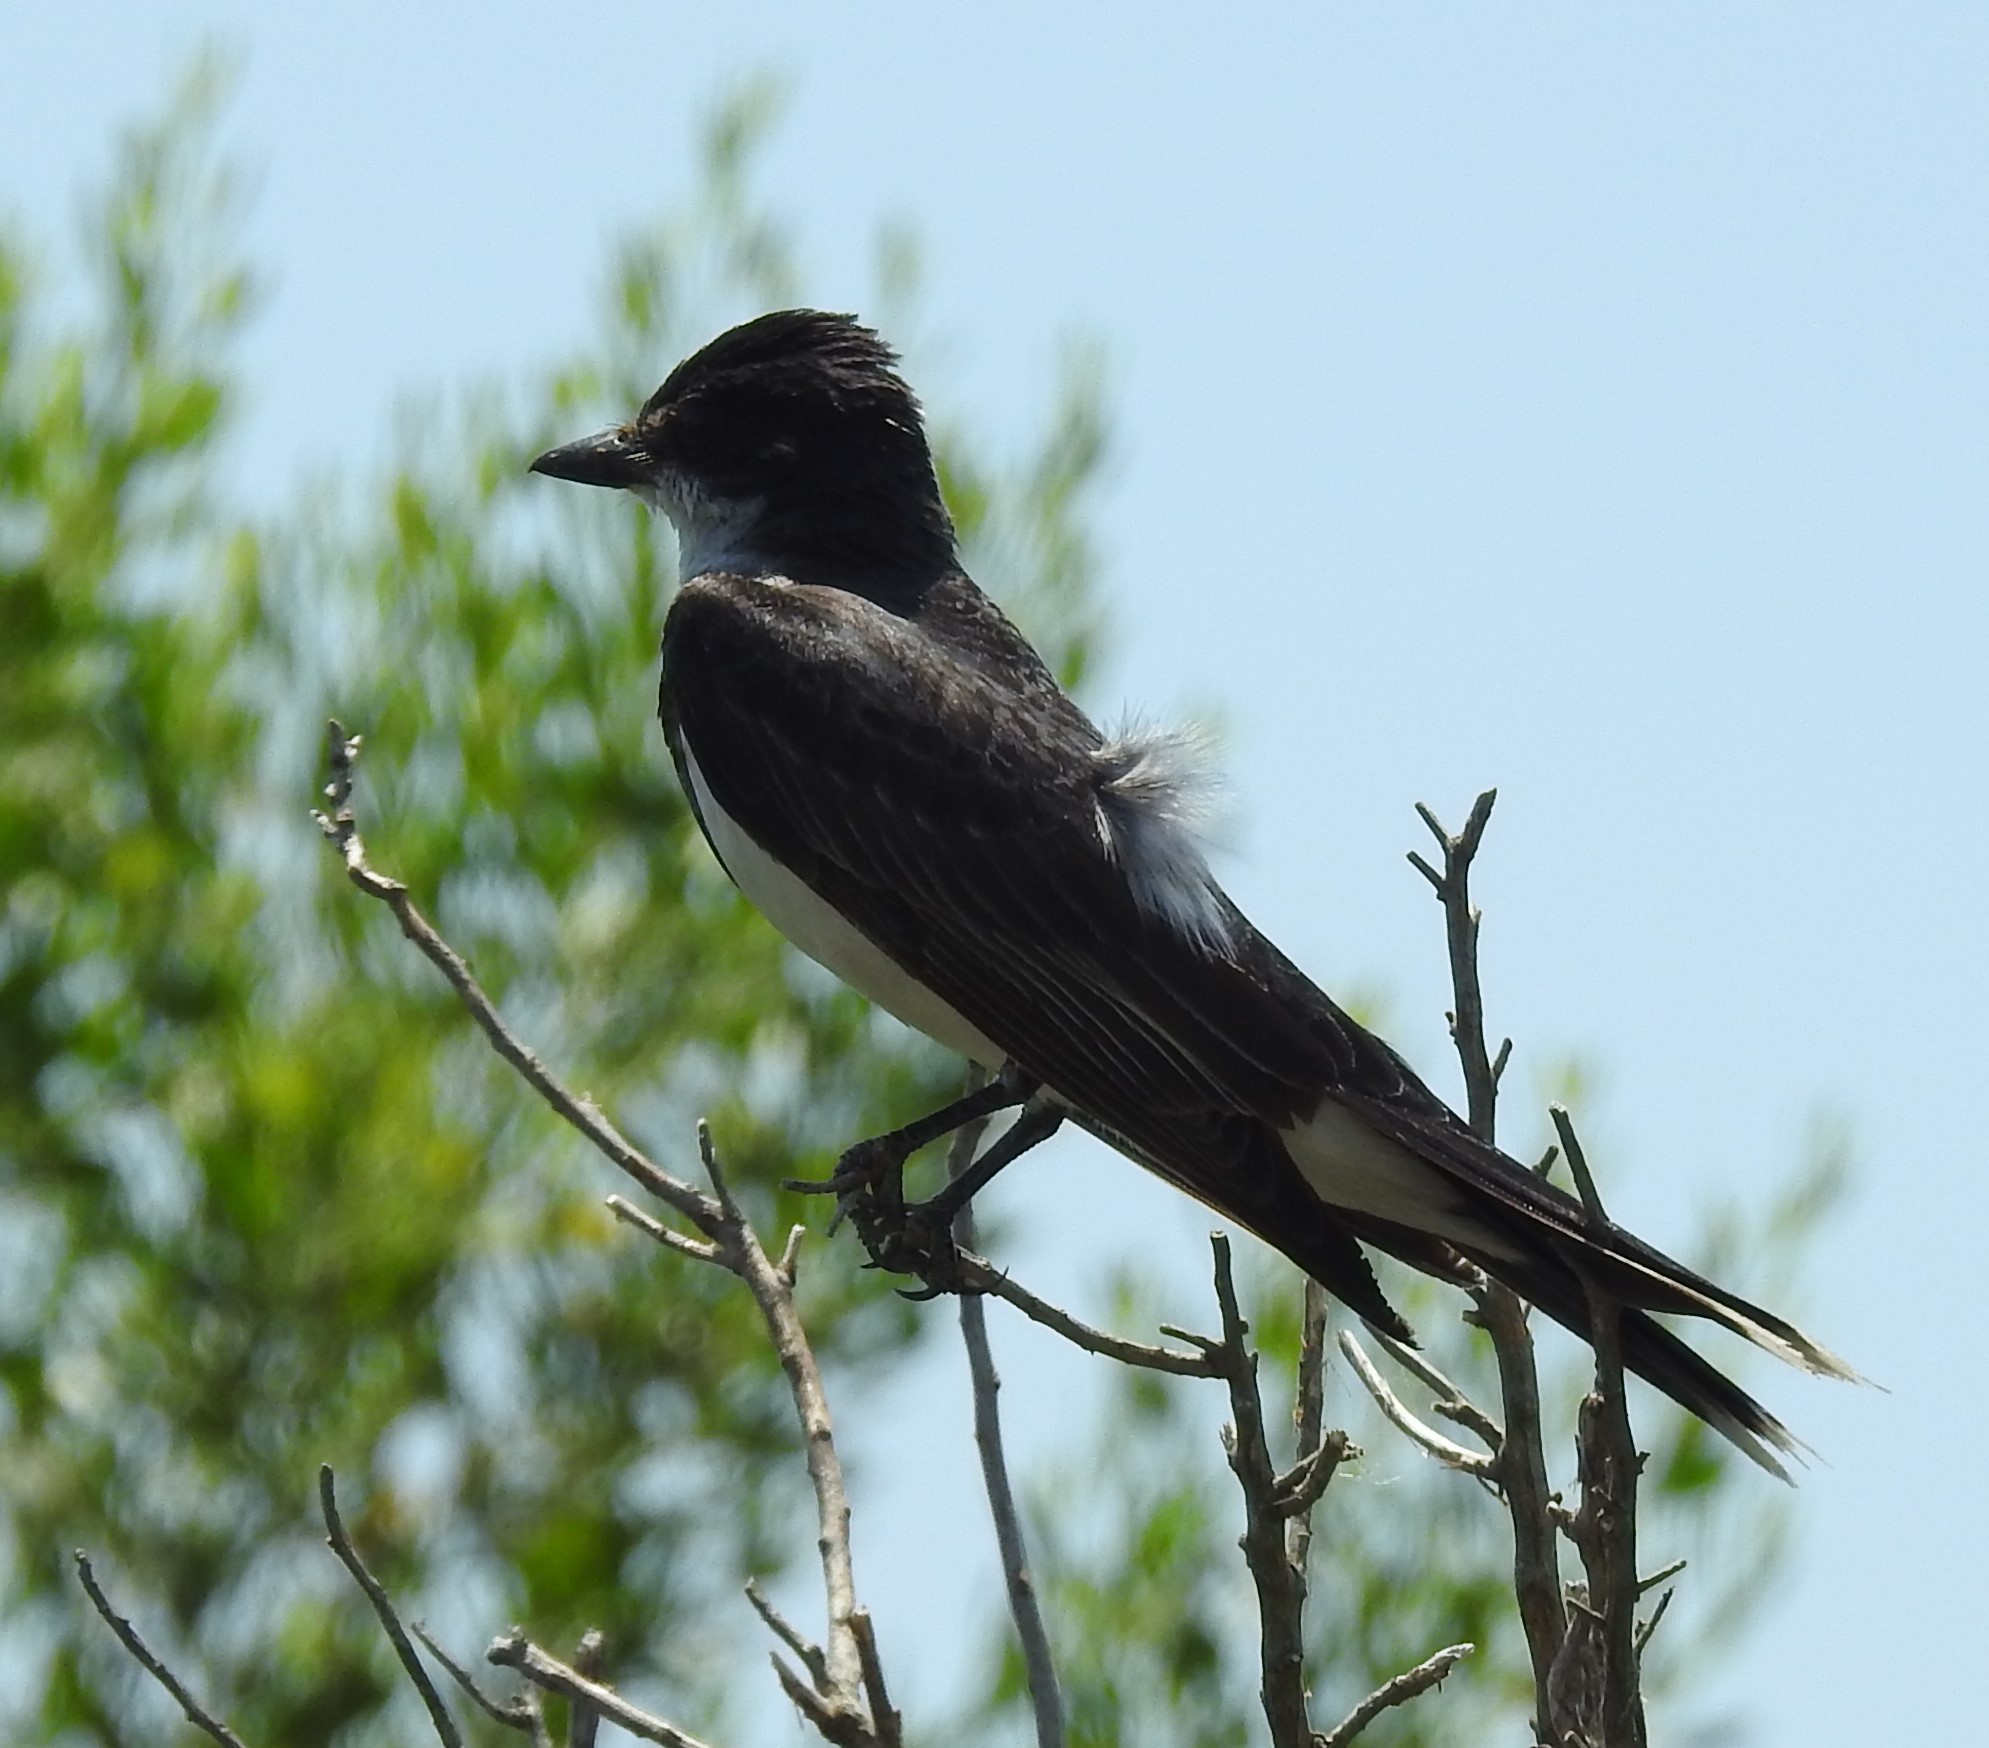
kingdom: Animalia
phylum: Chordata
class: Aves
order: Passeriformes
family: Tyrannidae
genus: Tyrannus
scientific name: Tyrannus tyrannus
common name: Eastern kingbird
